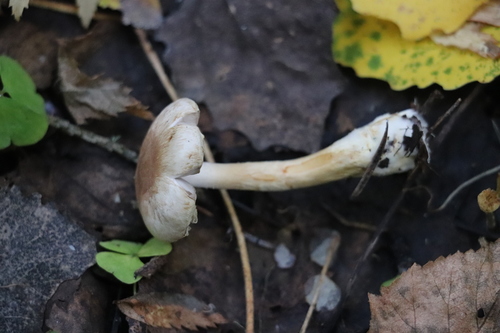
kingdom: Fungi
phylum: Basidiomycota
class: Agaricomycetes
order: Agaricales
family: Agaricaceae
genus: Agaricus
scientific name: Agaricus semotus
